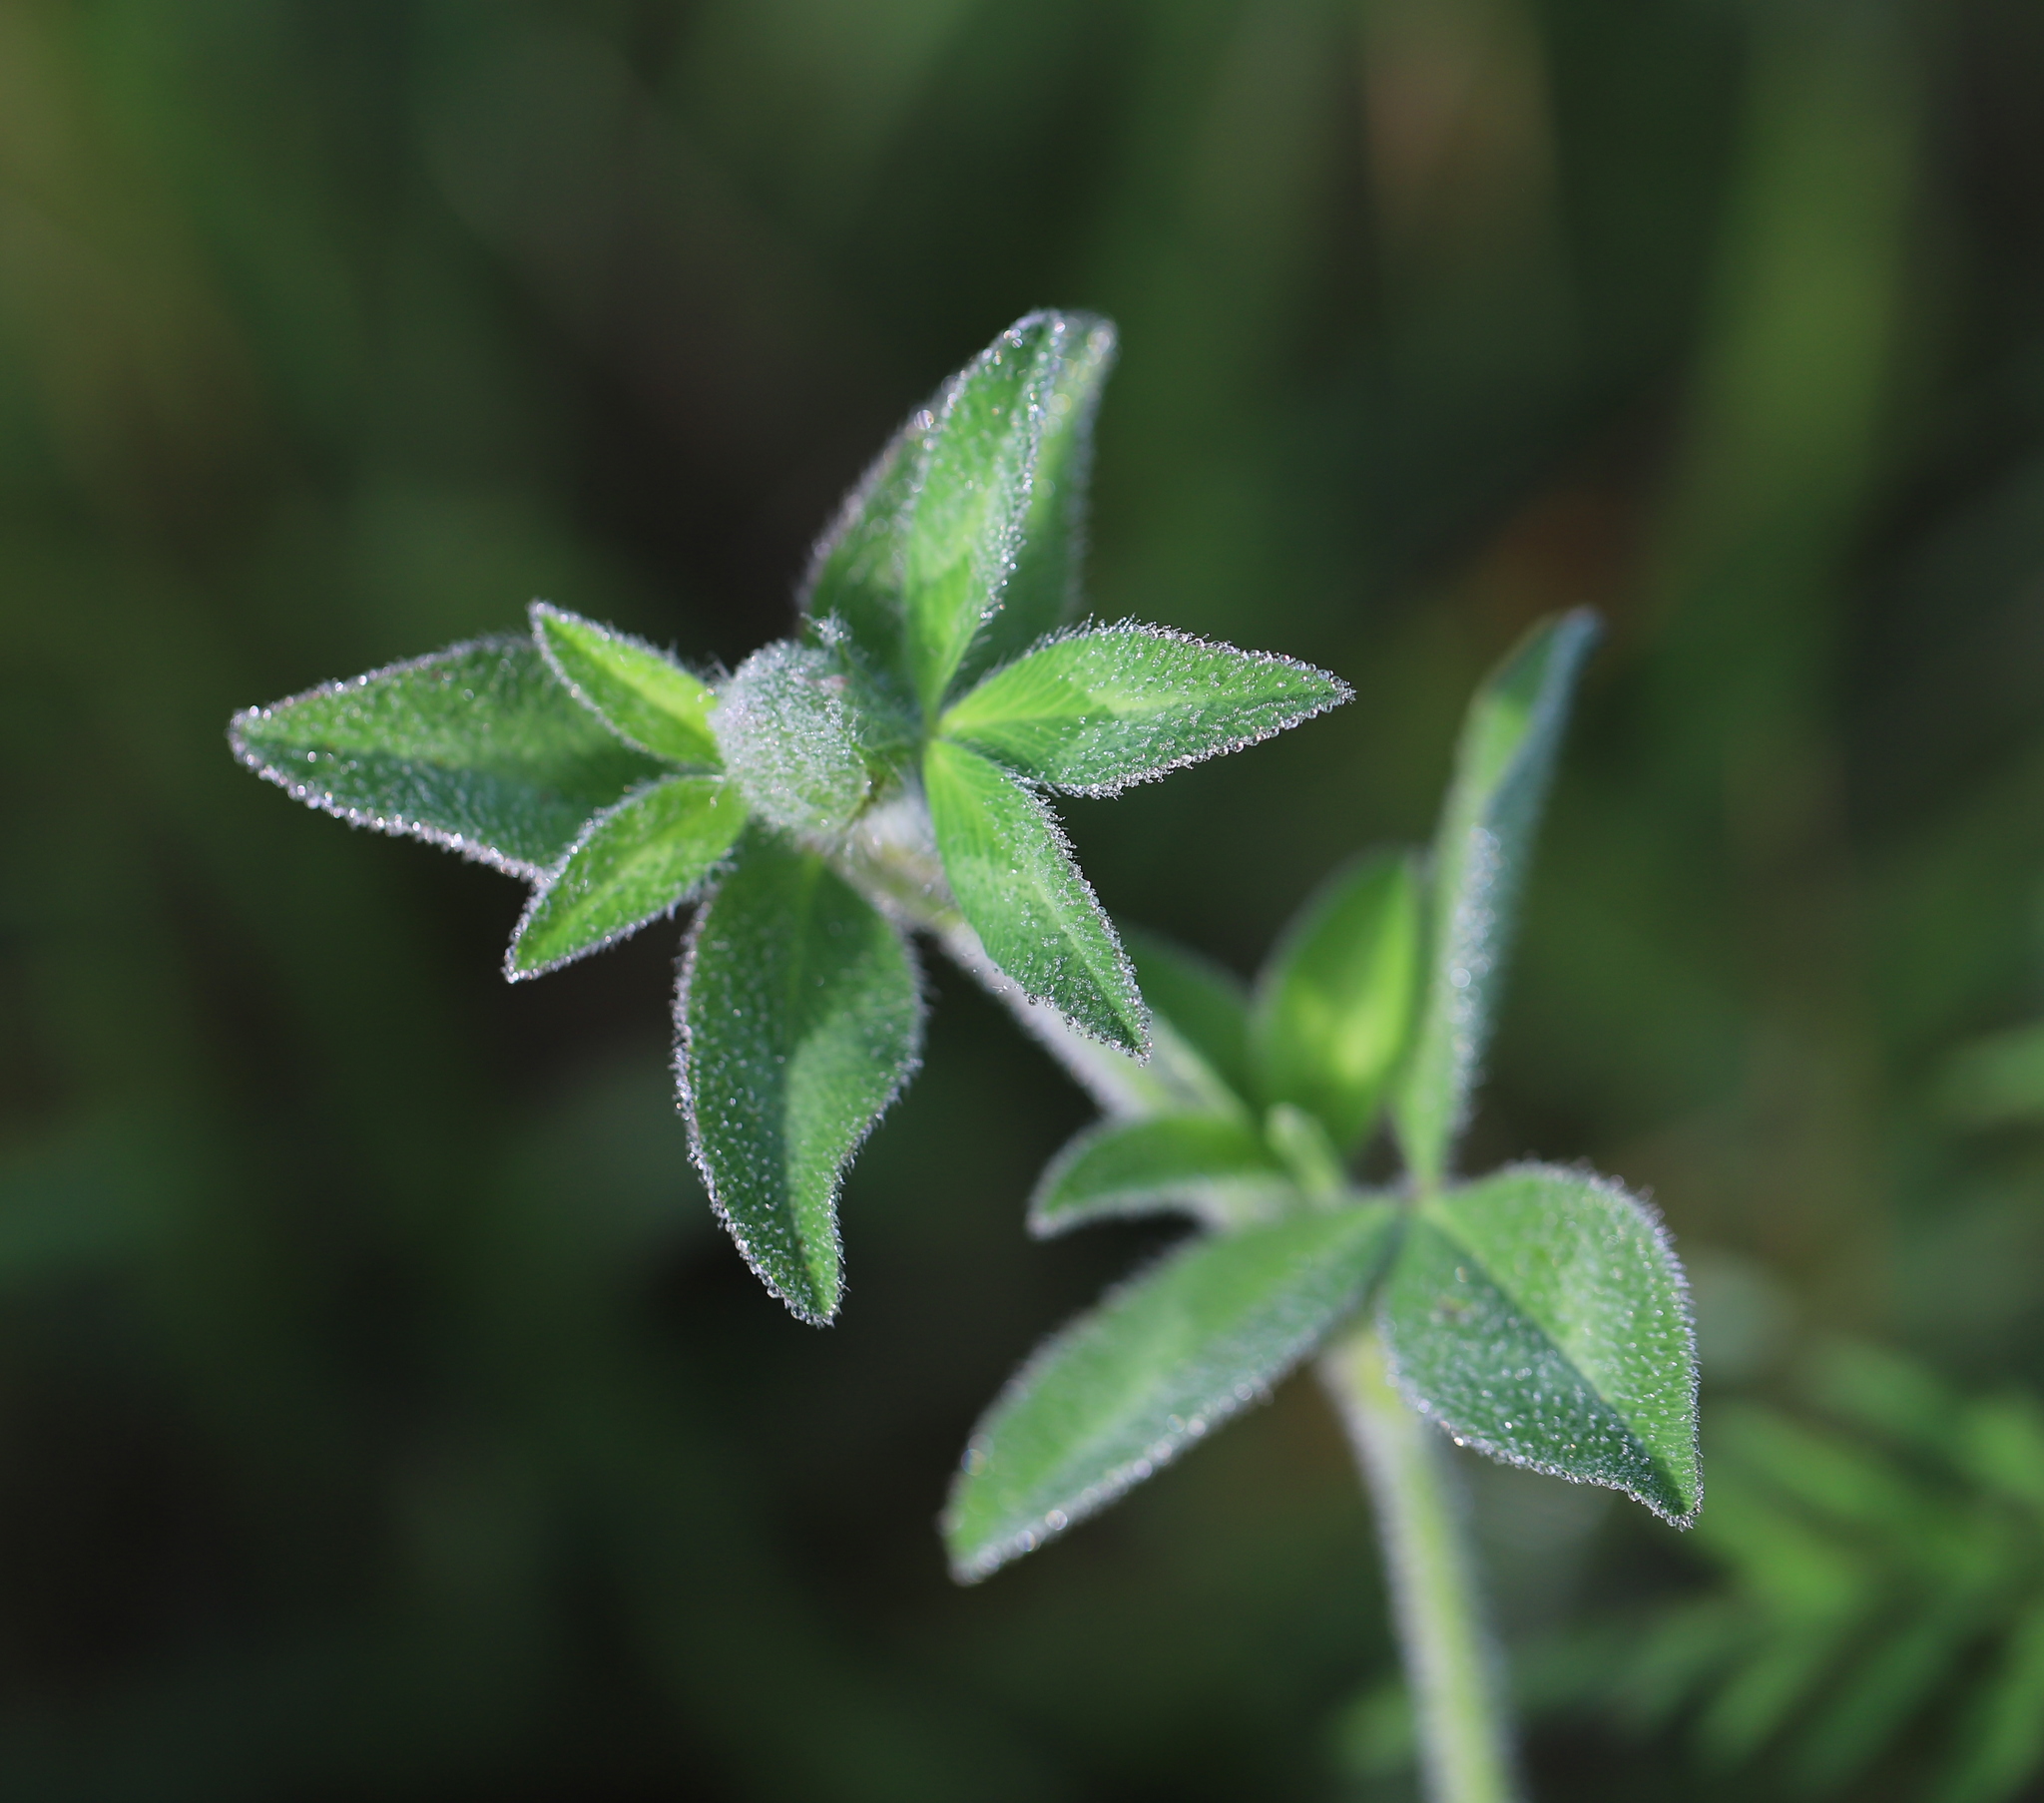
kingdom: Plantae
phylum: Tracheophyta
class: Magnoliopsida
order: Fabales
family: Fabaceae
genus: Trifolium
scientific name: Trifolium pratense
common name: Red clover
